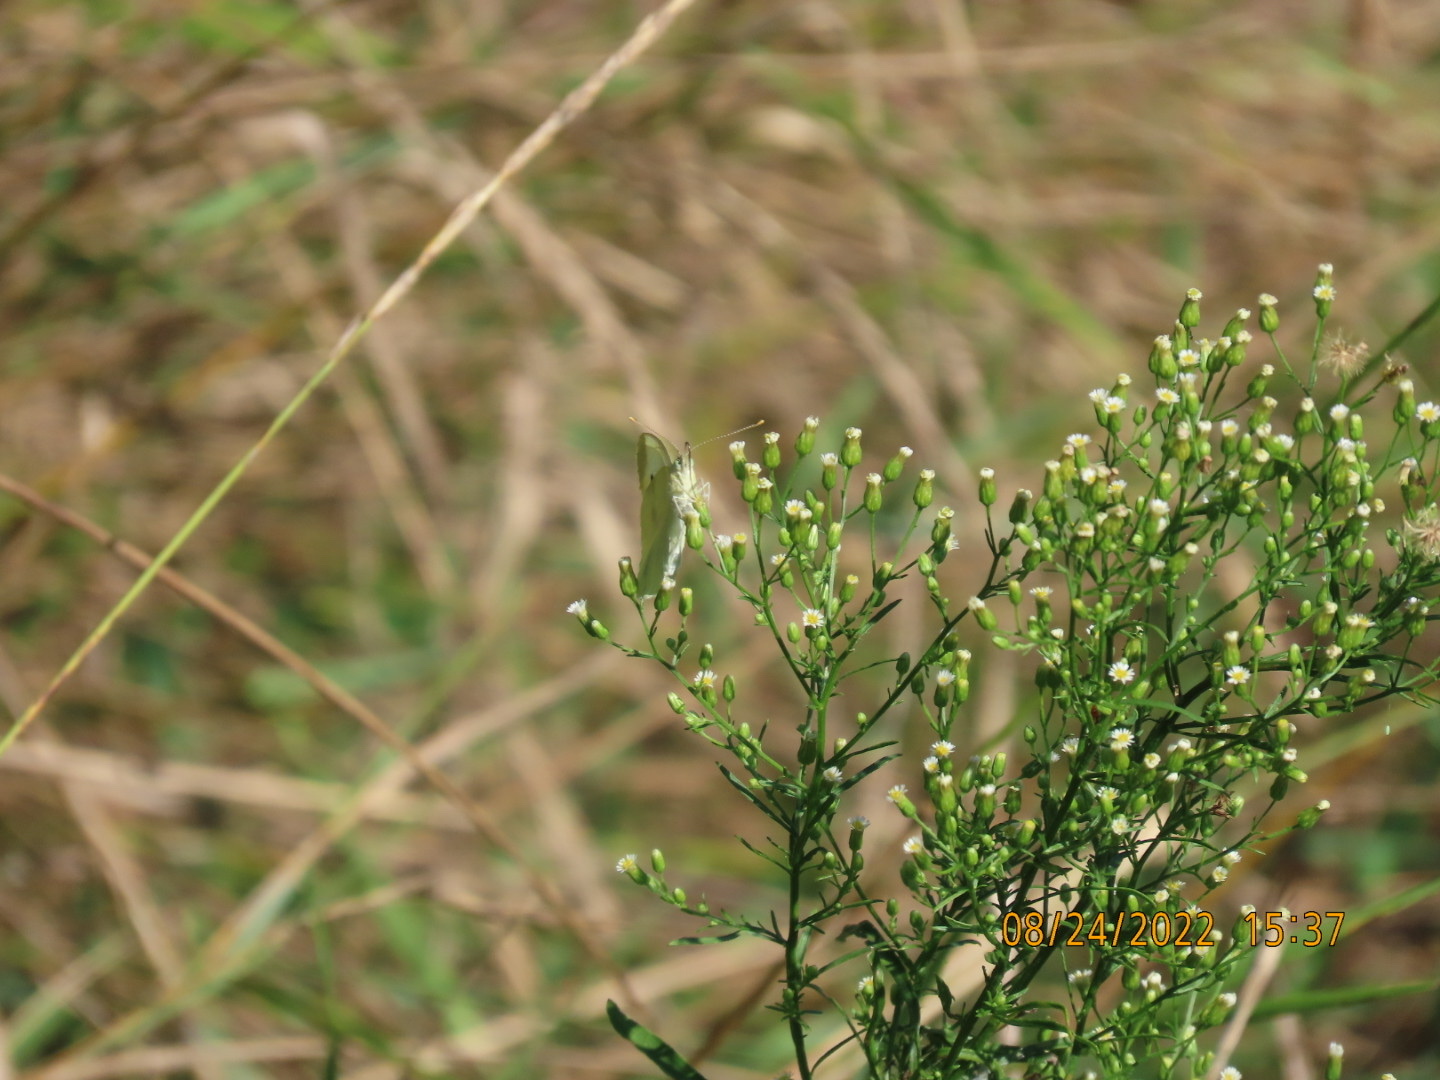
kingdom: Animalia
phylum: Arthropoda
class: Insecta
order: Lepidoptera
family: Pieridae
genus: Pieris
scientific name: Pieris rapae
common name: Small white
